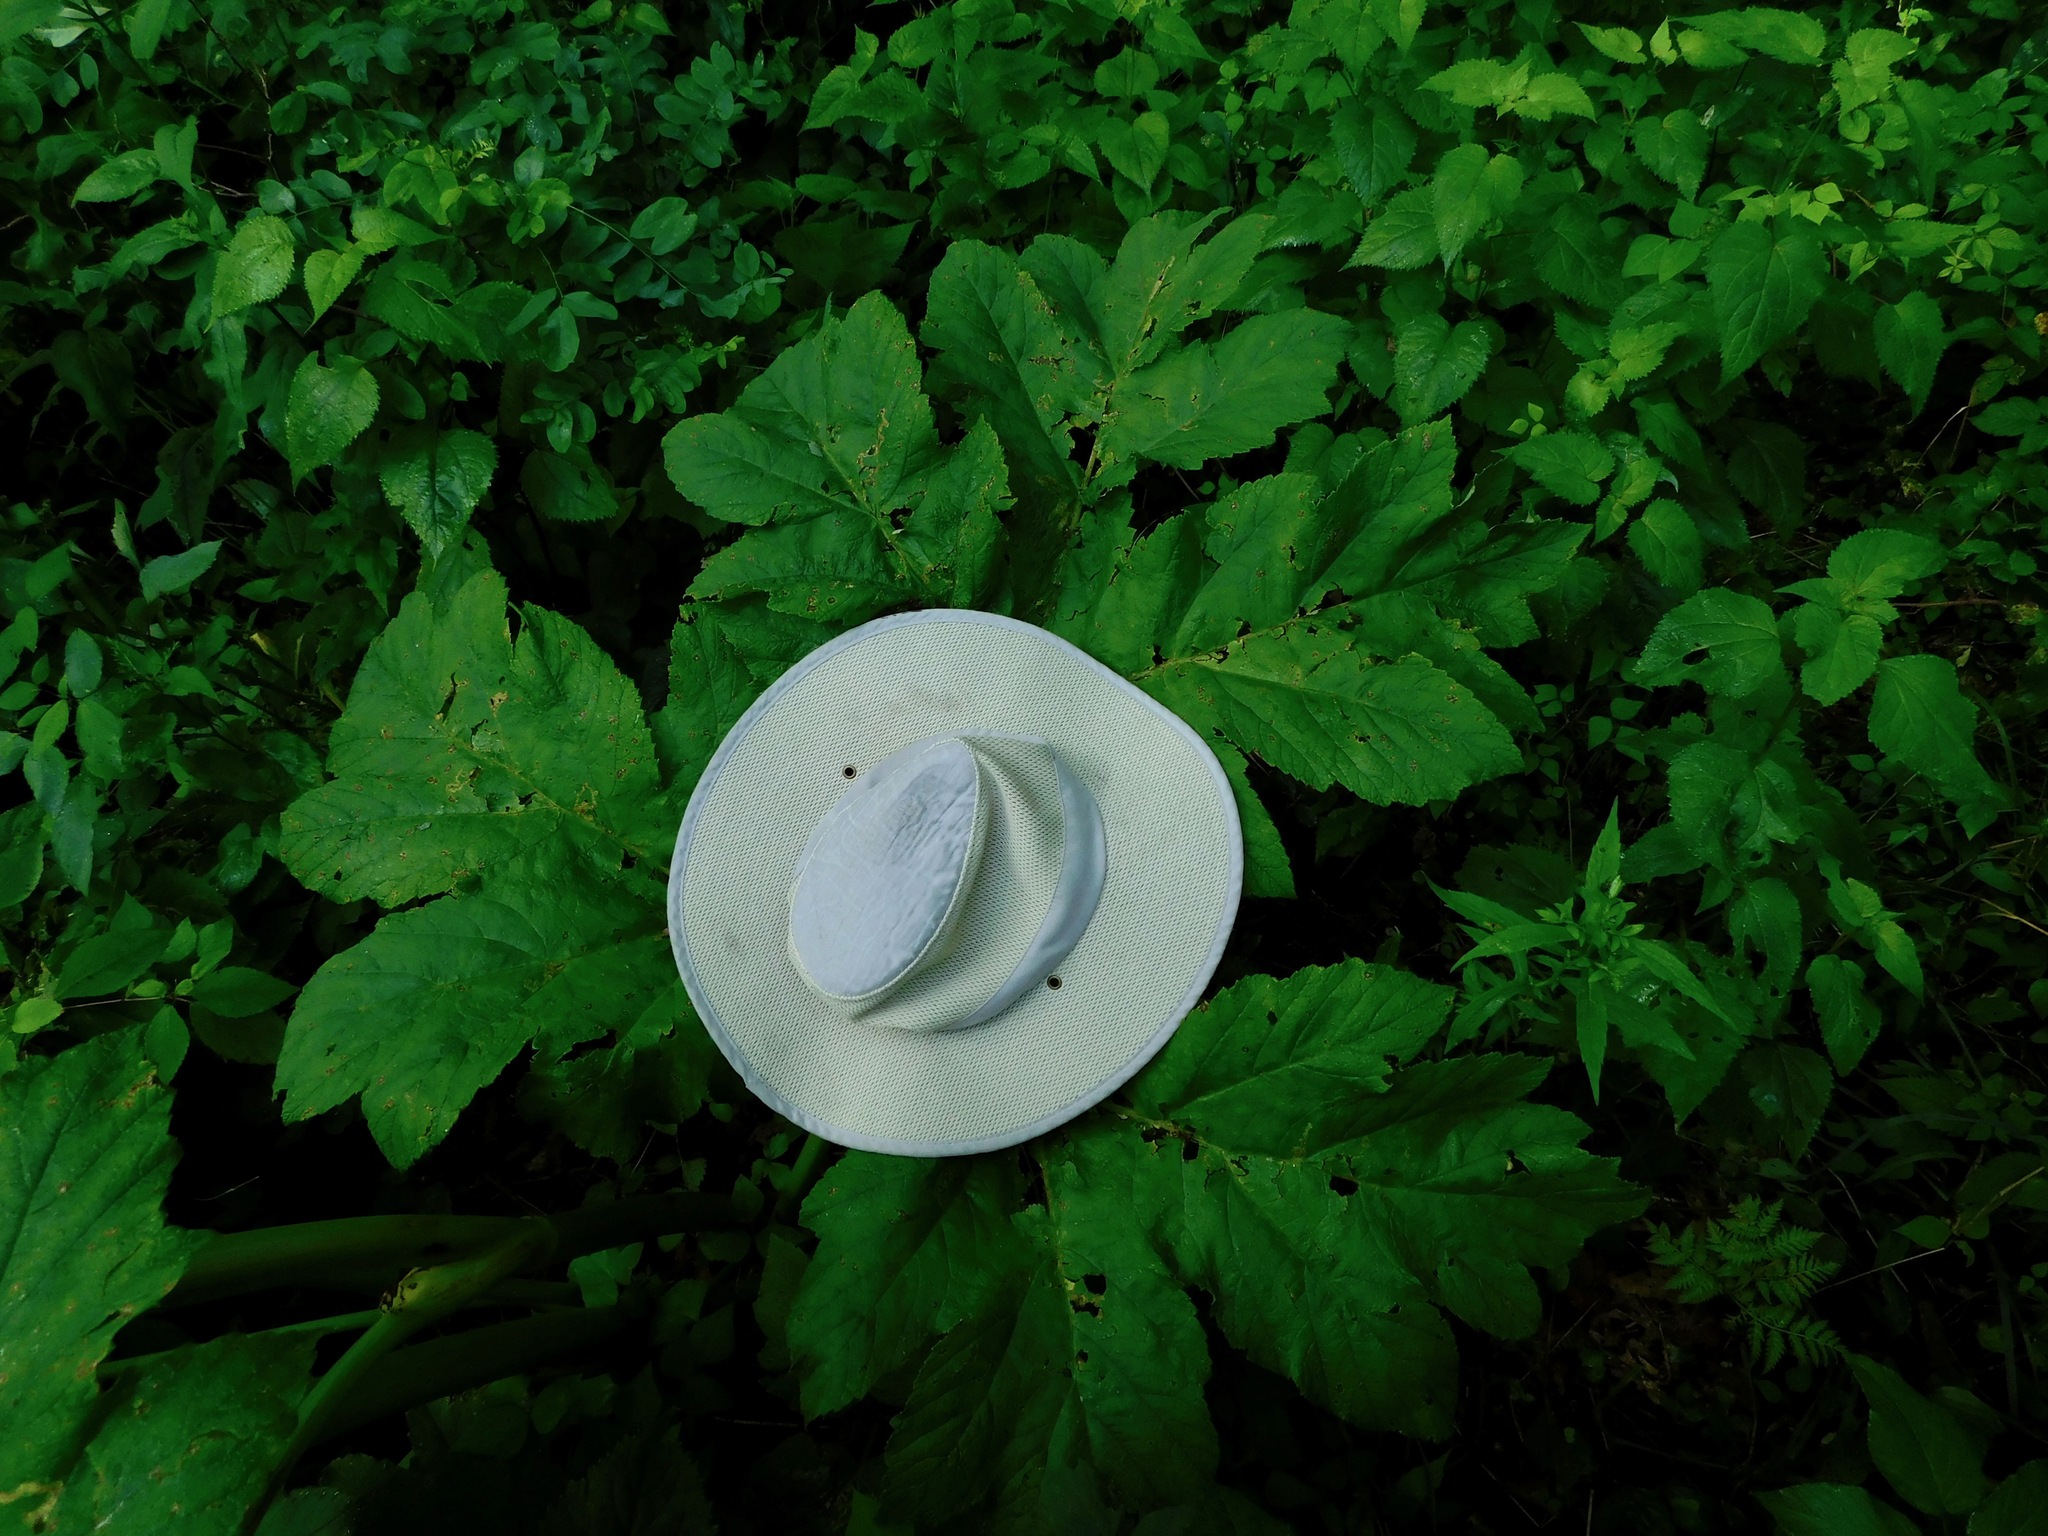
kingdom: Plantae
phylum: Tracheophyta
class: Magnoliopsida
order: Apiales
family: Apiaceae
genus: Heracleum
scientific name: Heracleum maximum
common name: American cow parsnip
